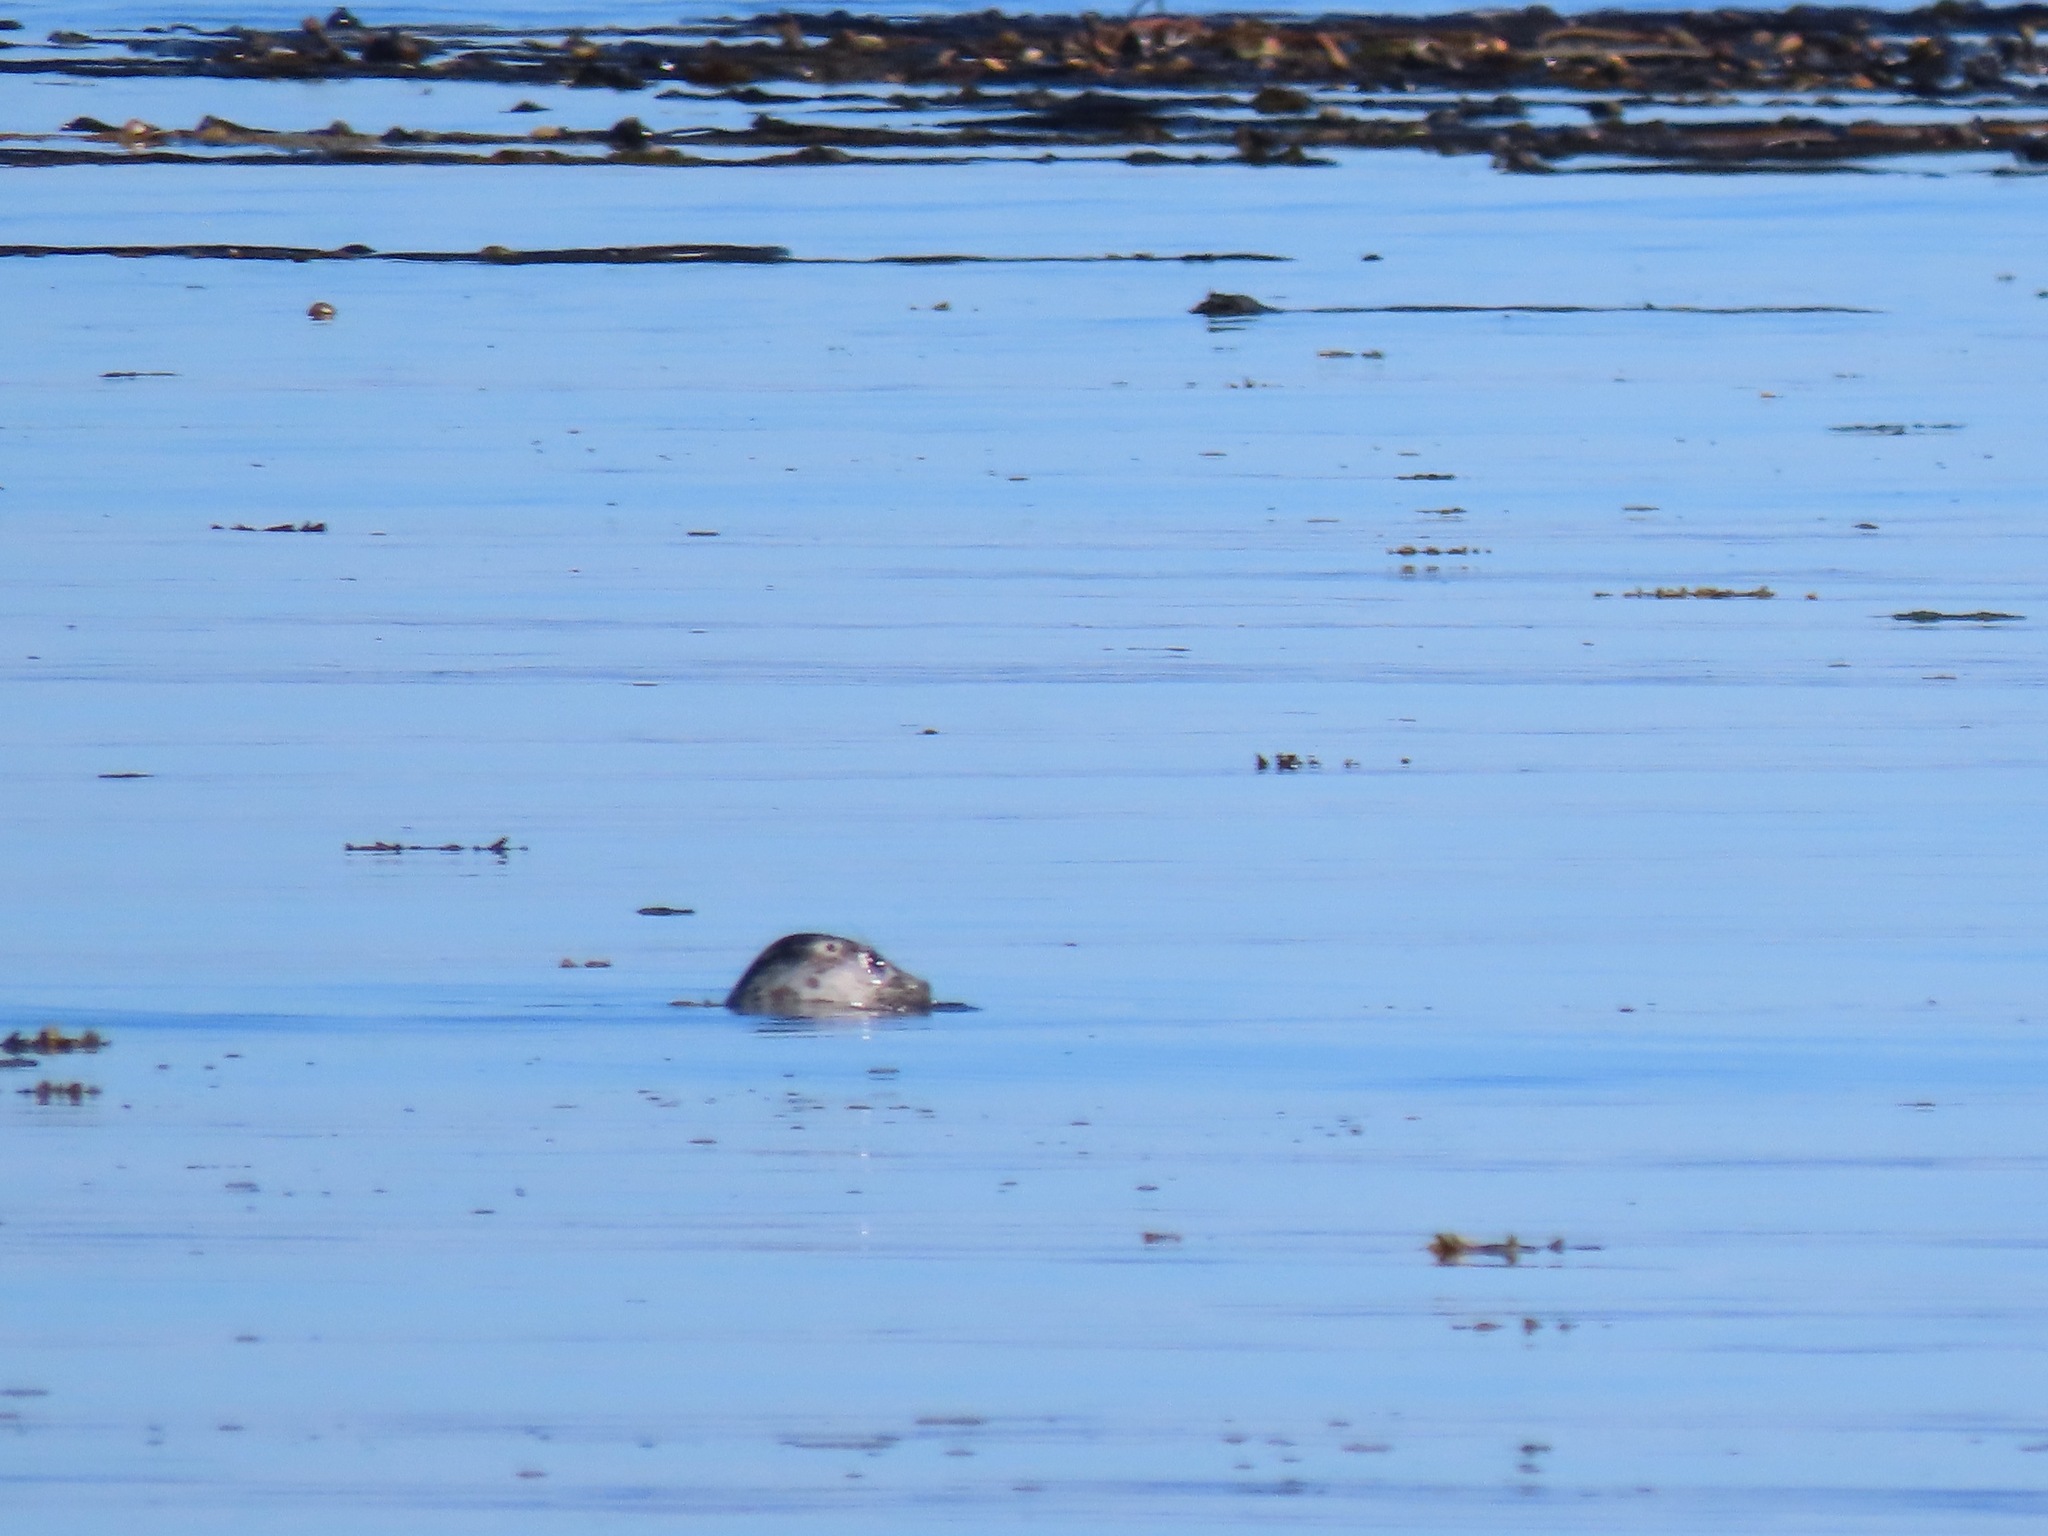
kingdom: Animalia
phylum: Chordata
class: Mammalia
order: Carnivora
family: Phocidae
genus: Phoca
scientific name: Phoca vitulina
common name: Harbor seal
